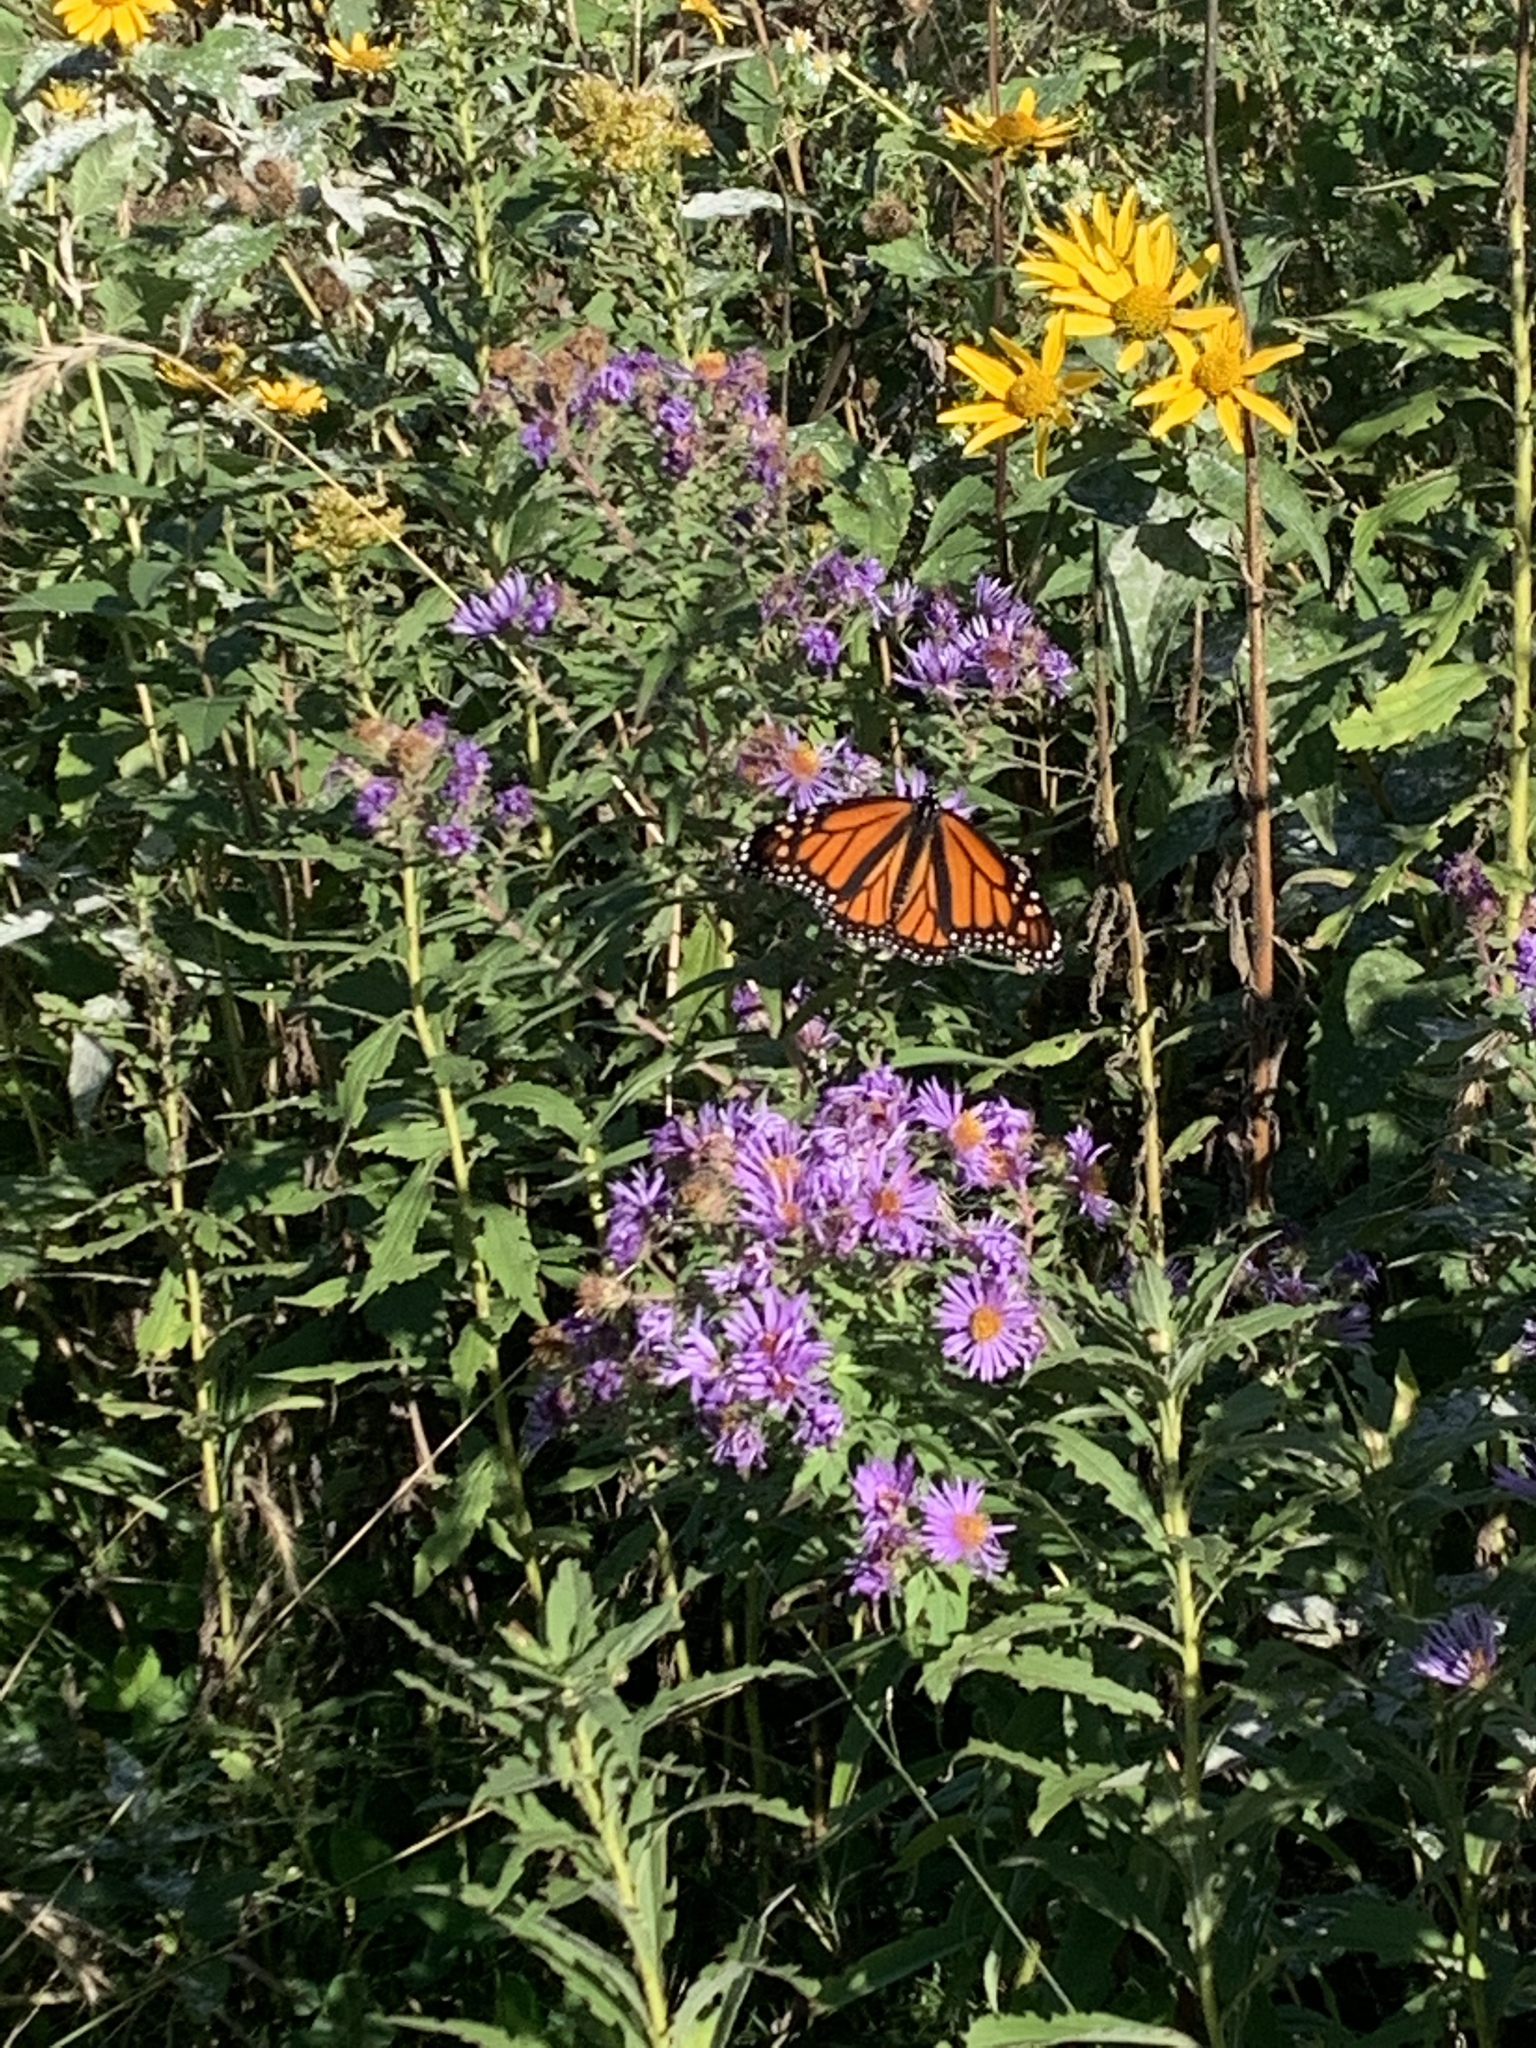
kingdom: Animalia
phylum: Arthropoda
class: Insecta
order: Lepidoptera
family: Nymphalidae
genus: Danaus
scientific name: Danaus plexippus
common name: Monarch
